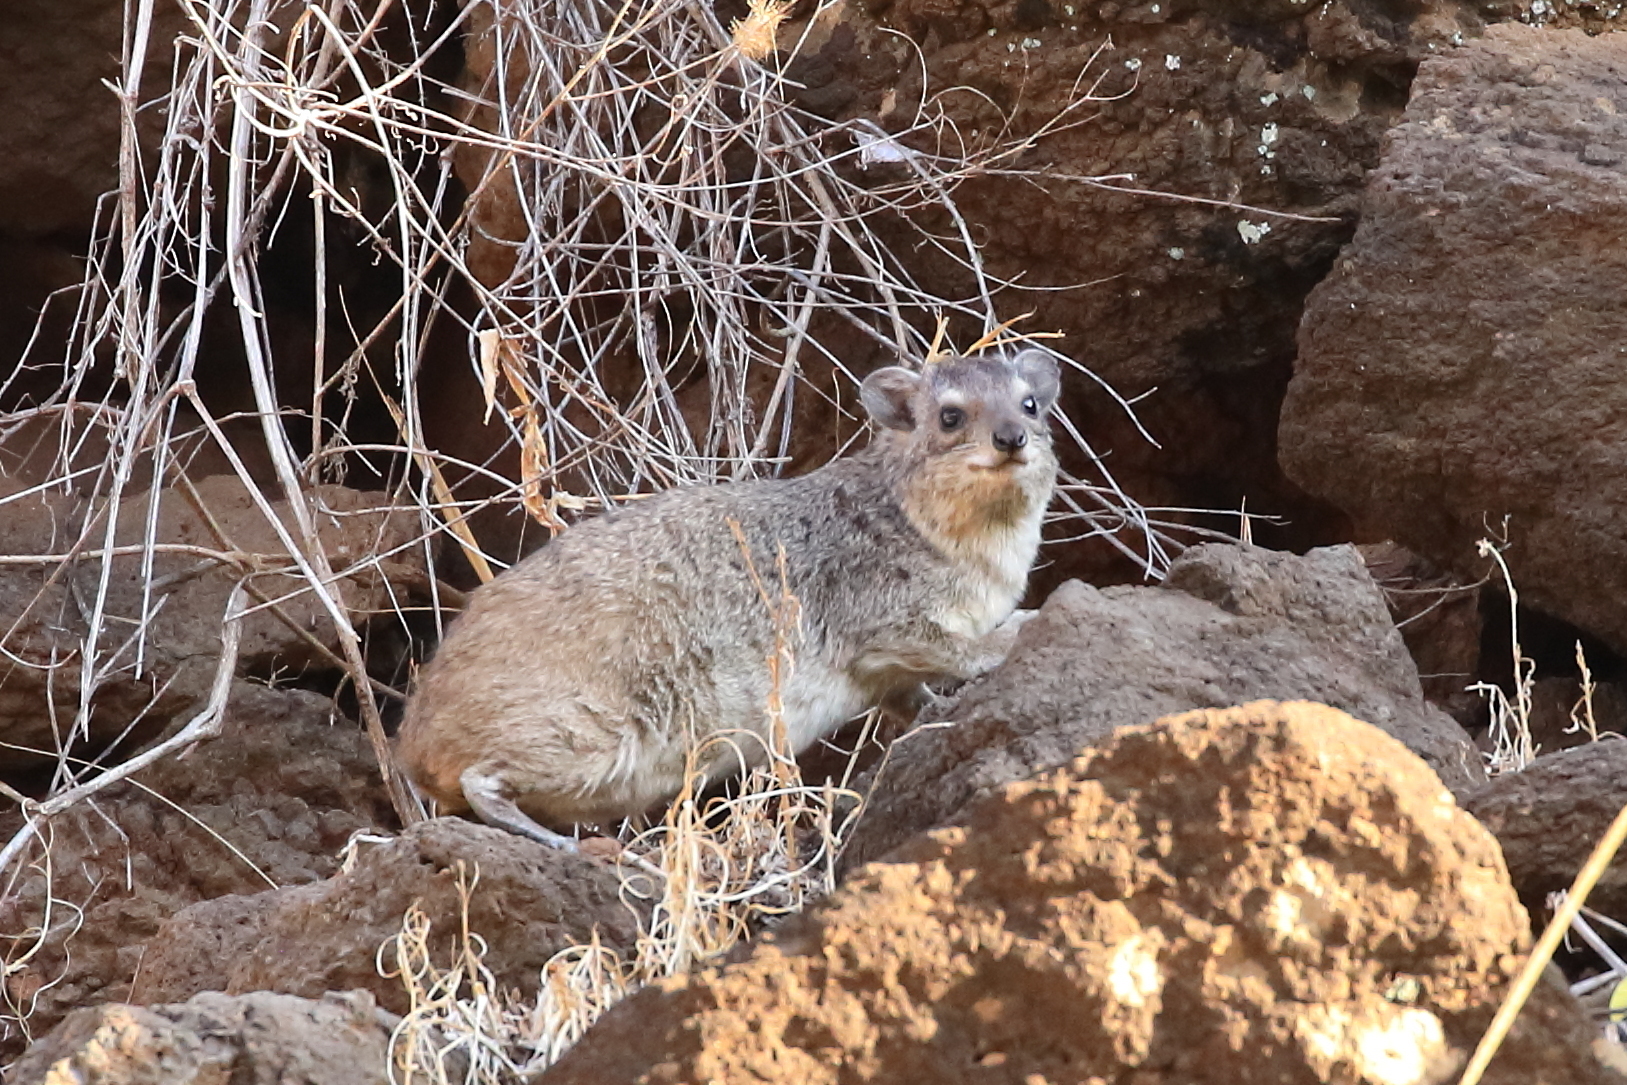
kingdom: Animalia
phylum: Chordata
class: Mammalia
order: Hyracoidea
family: Procaviidae
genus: Heterohyrax
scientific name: Heterohyrax brucei
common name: Bush hyrax
